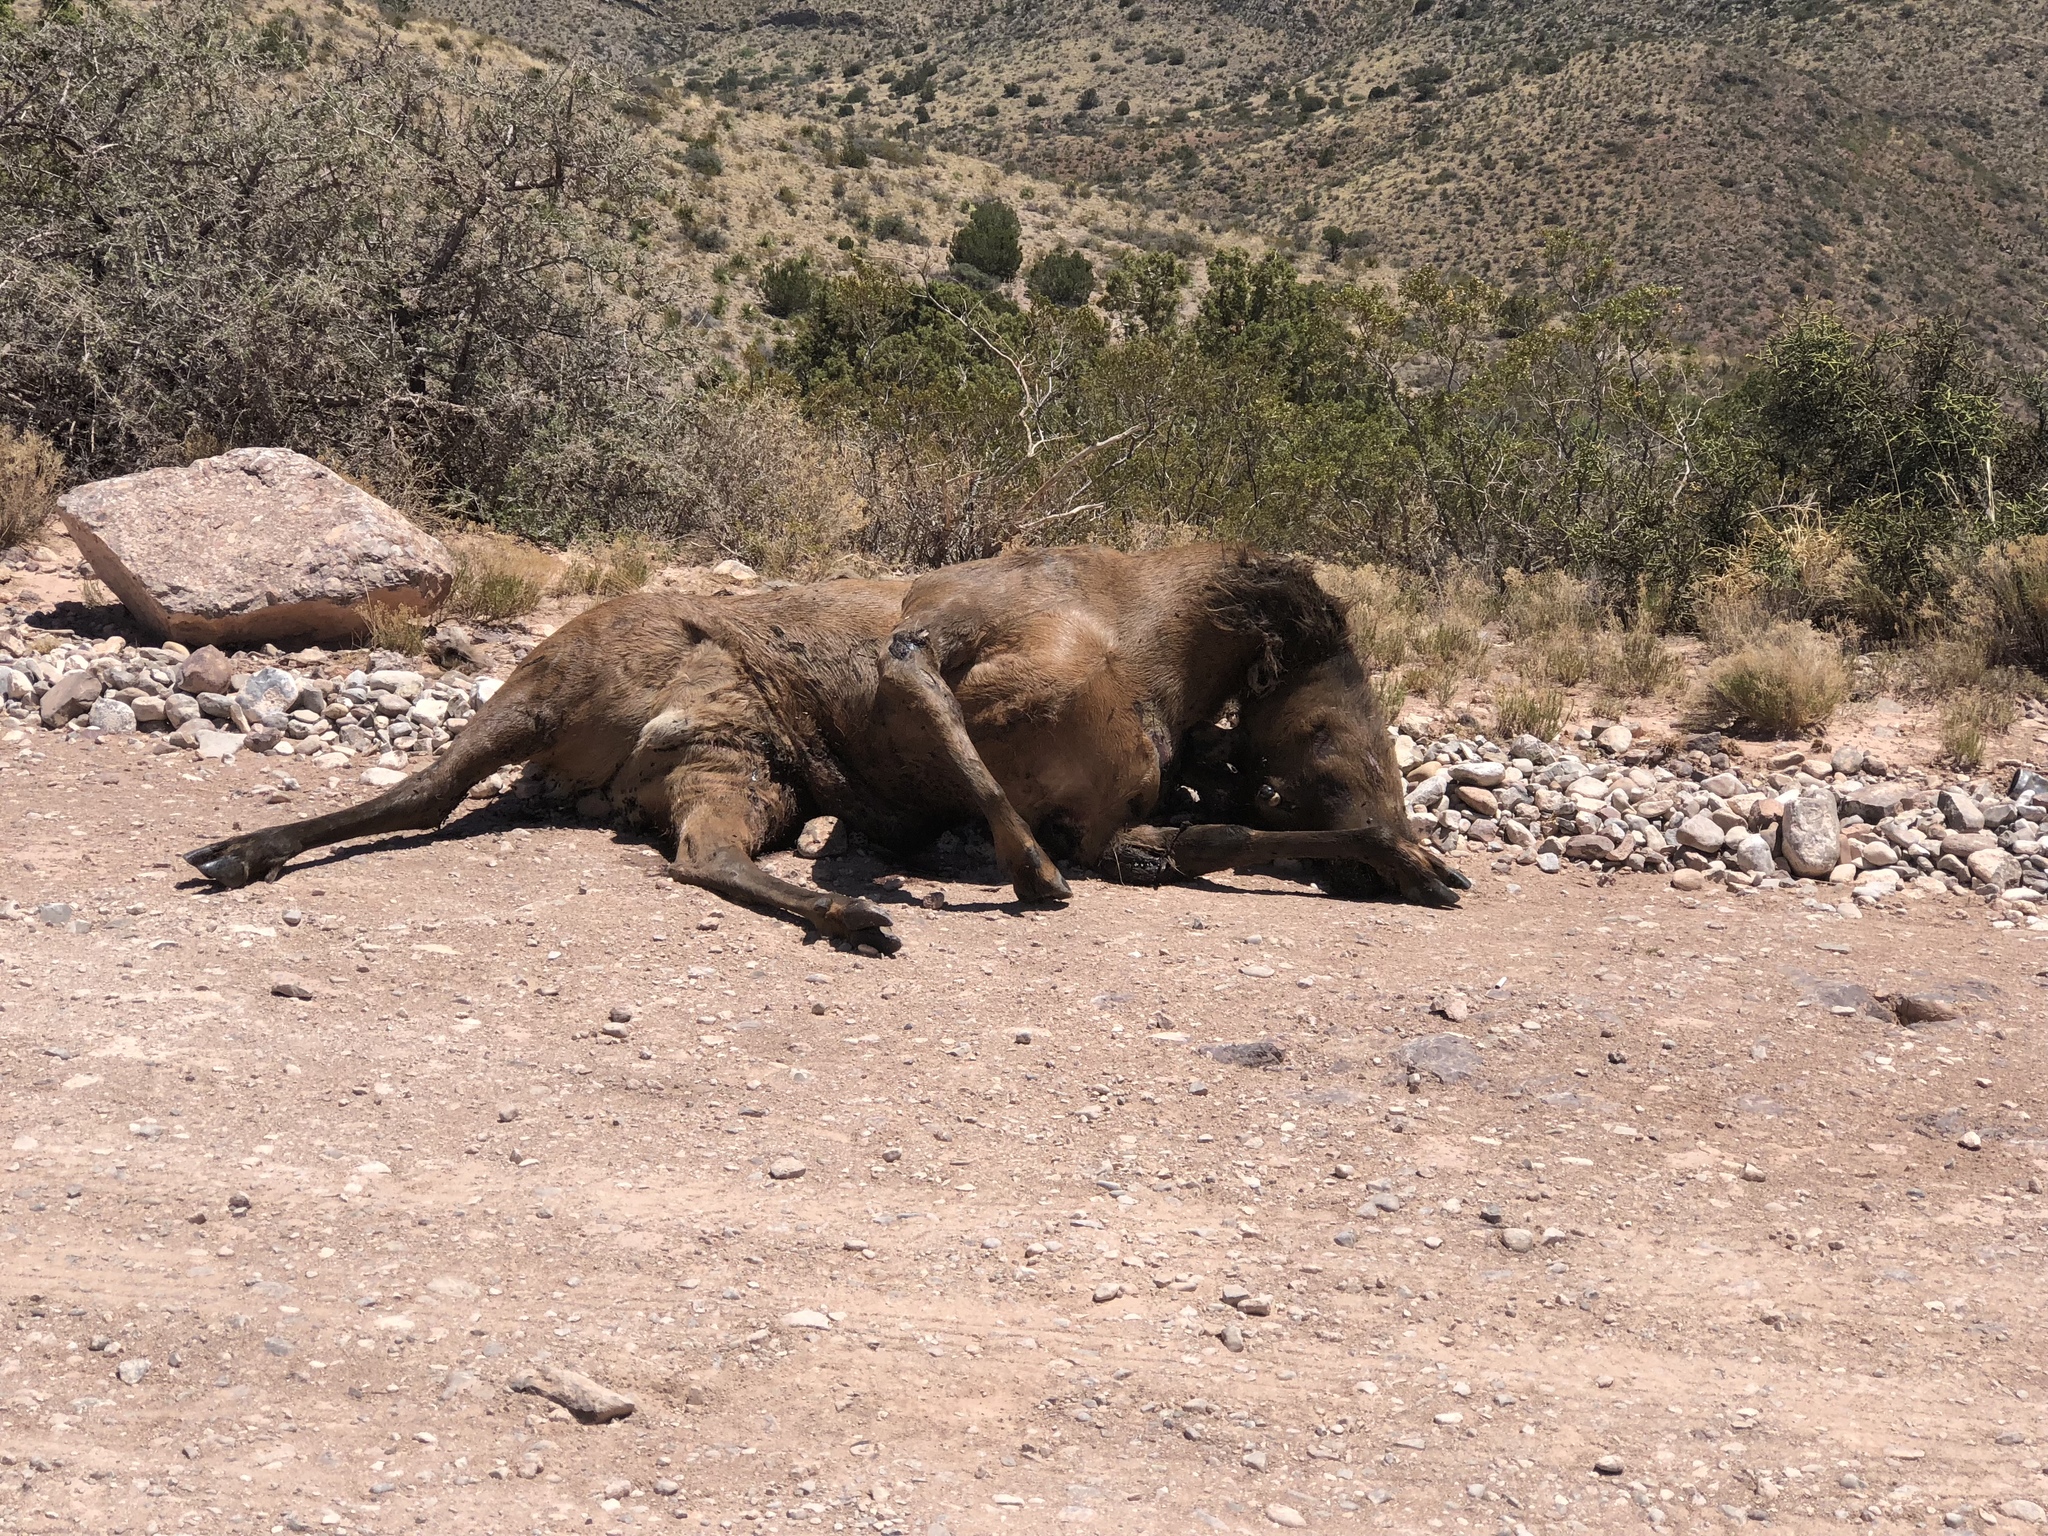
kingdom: Animalia
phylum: Chordata
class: Mammalia
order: Artiodactyla
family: Cervidae
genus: Cervus
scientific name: Cervus elaphus
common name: Red deer
